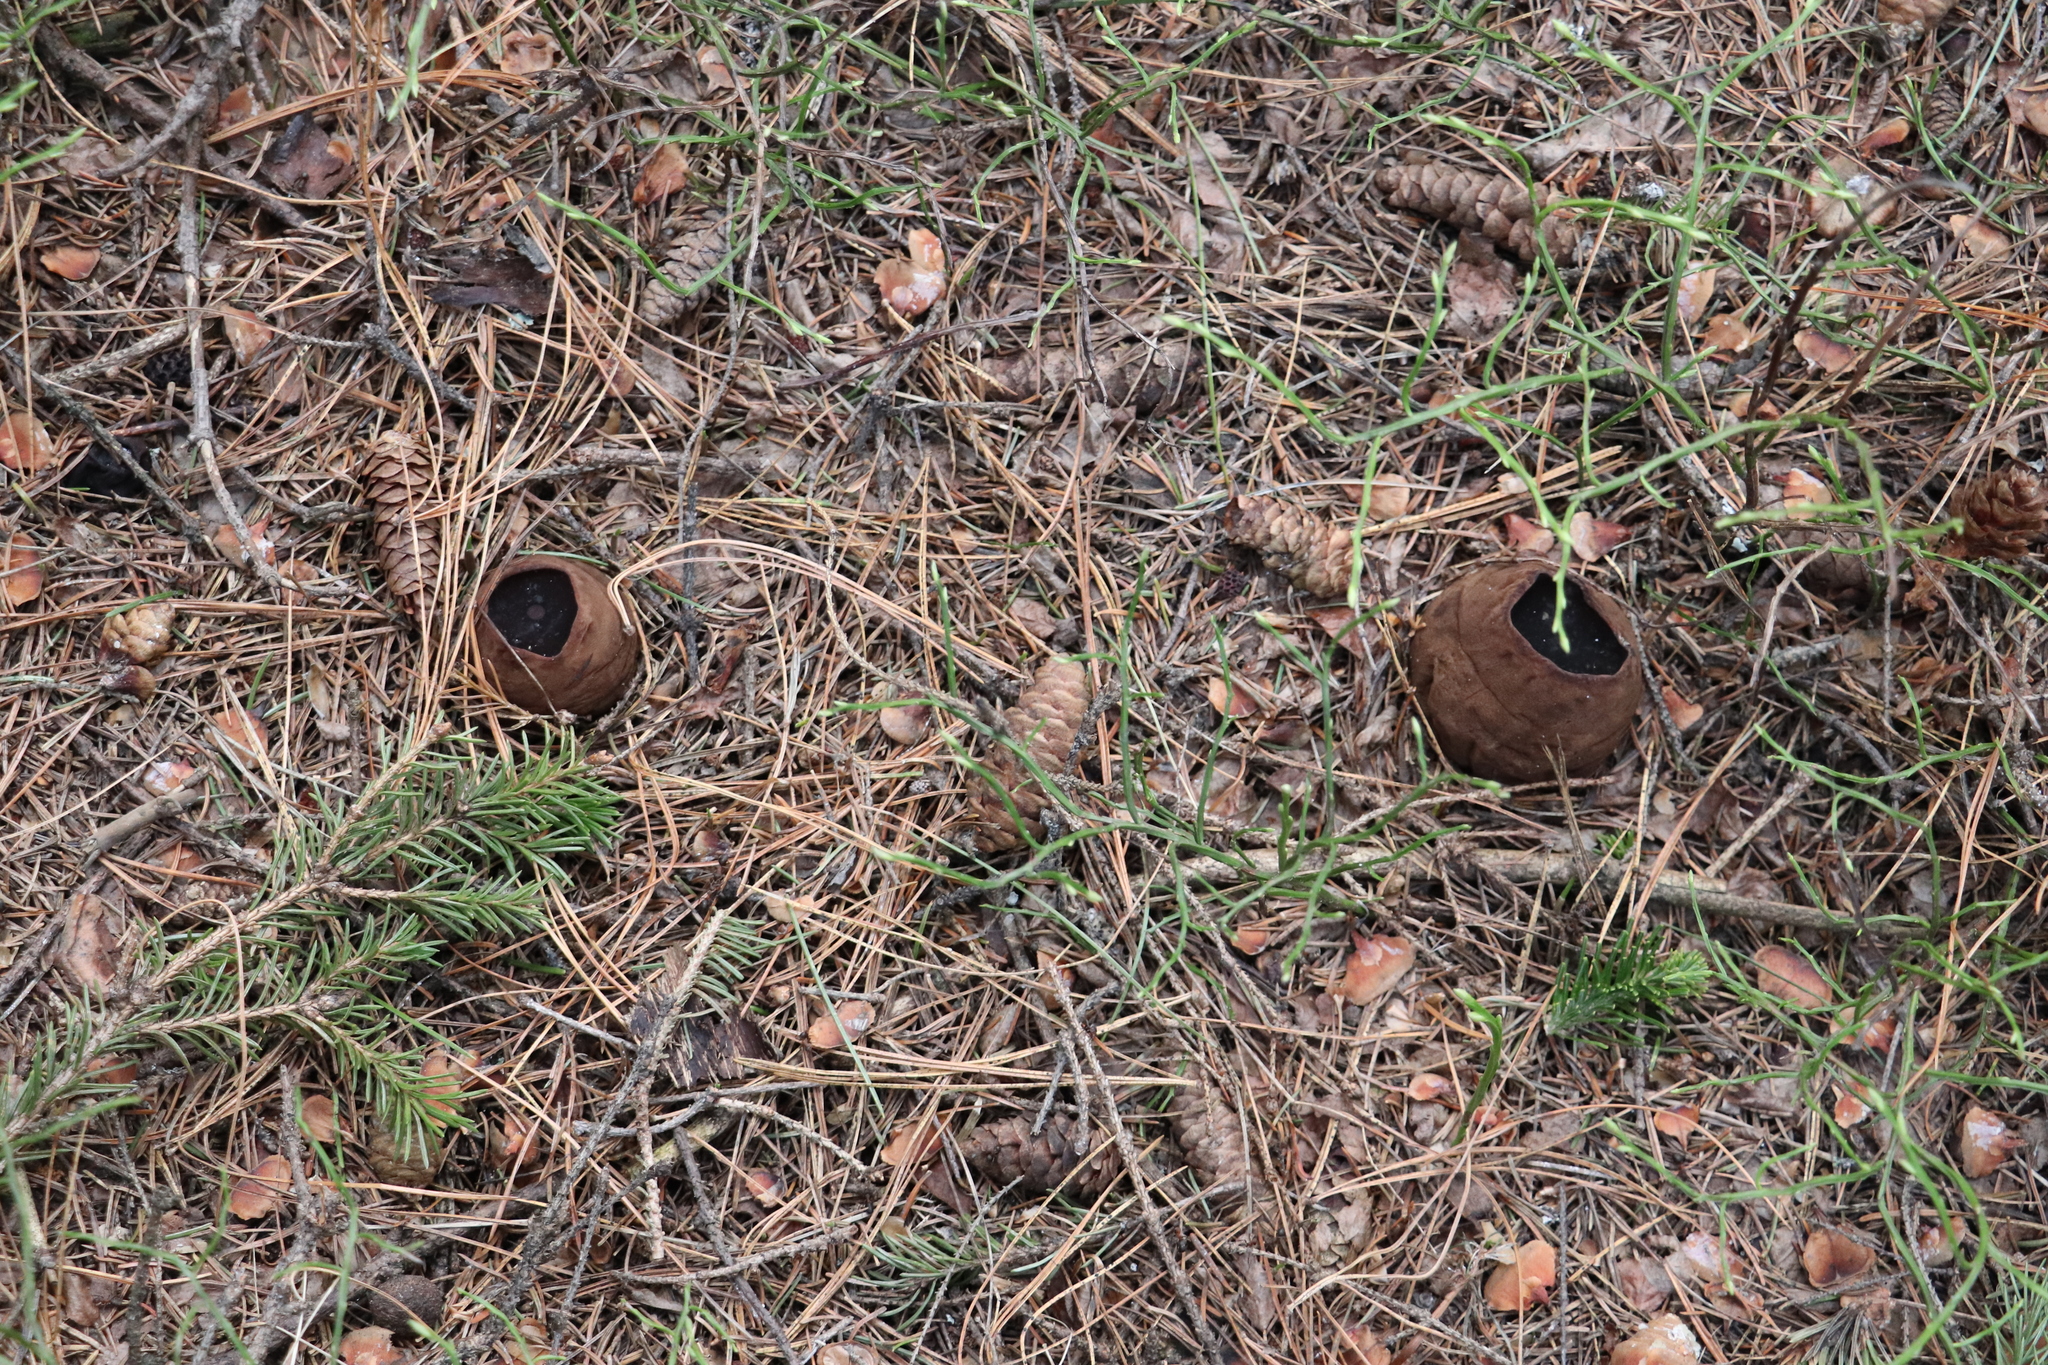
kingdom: Fungi
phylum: Ascomycota
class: Pezizomycetes
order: Pezizales
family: Sarcosomataceae
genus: Sarcosoma
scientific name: Sarcosoma globosum
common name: Charred-pancake cup
